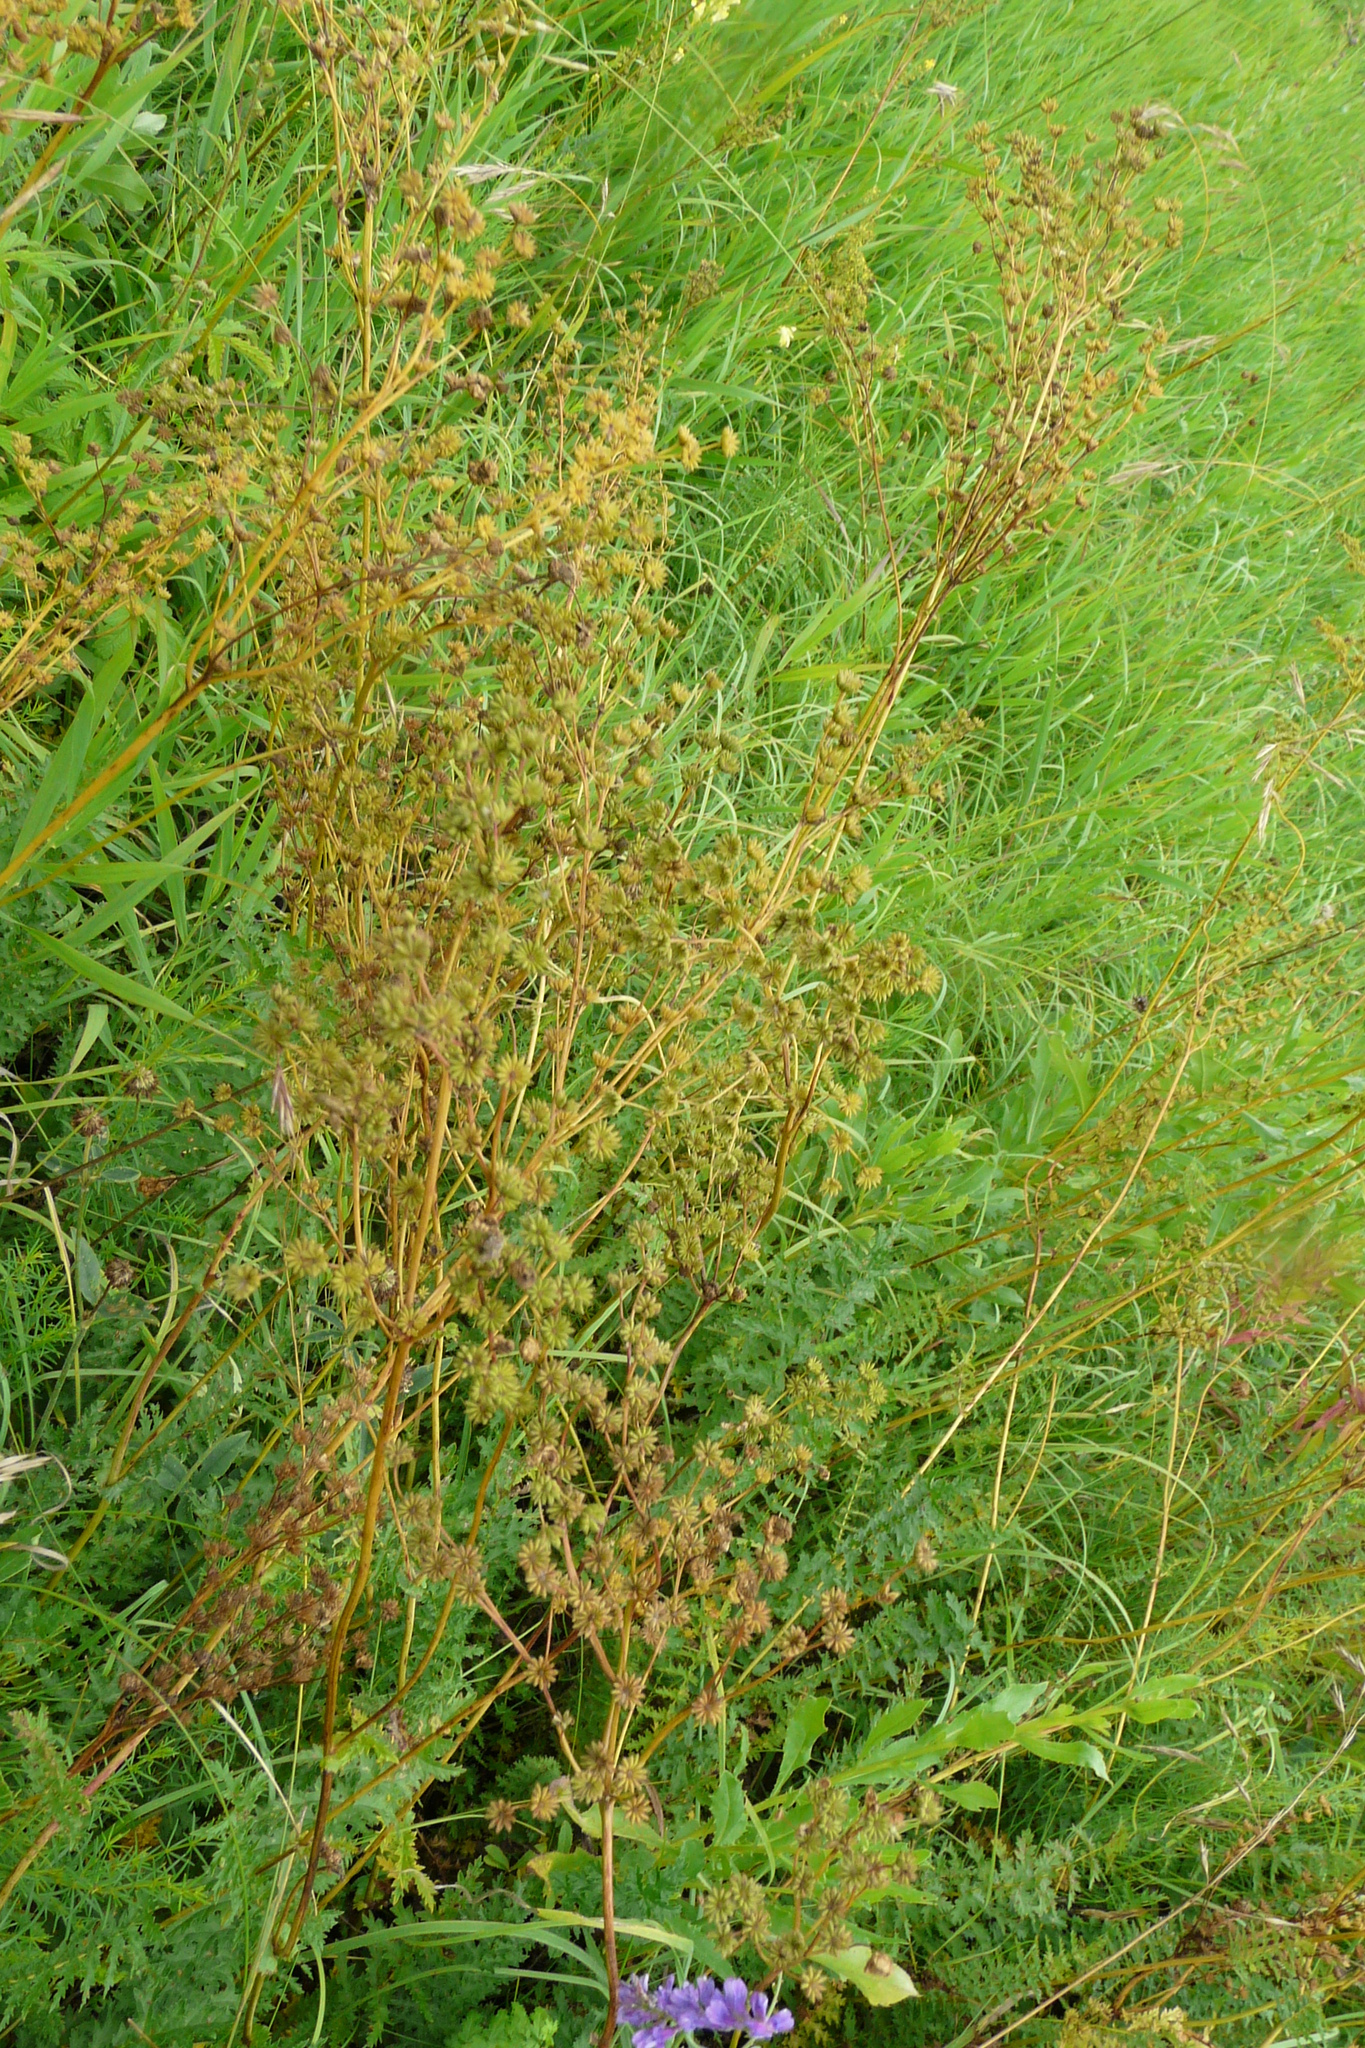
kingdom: Plantae
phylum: Tracheophyta
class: Magnoliopsida
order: Rosales
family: Rosaceae
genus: Filipendula
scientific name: Filipendula vulgaris
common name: Dropwort
